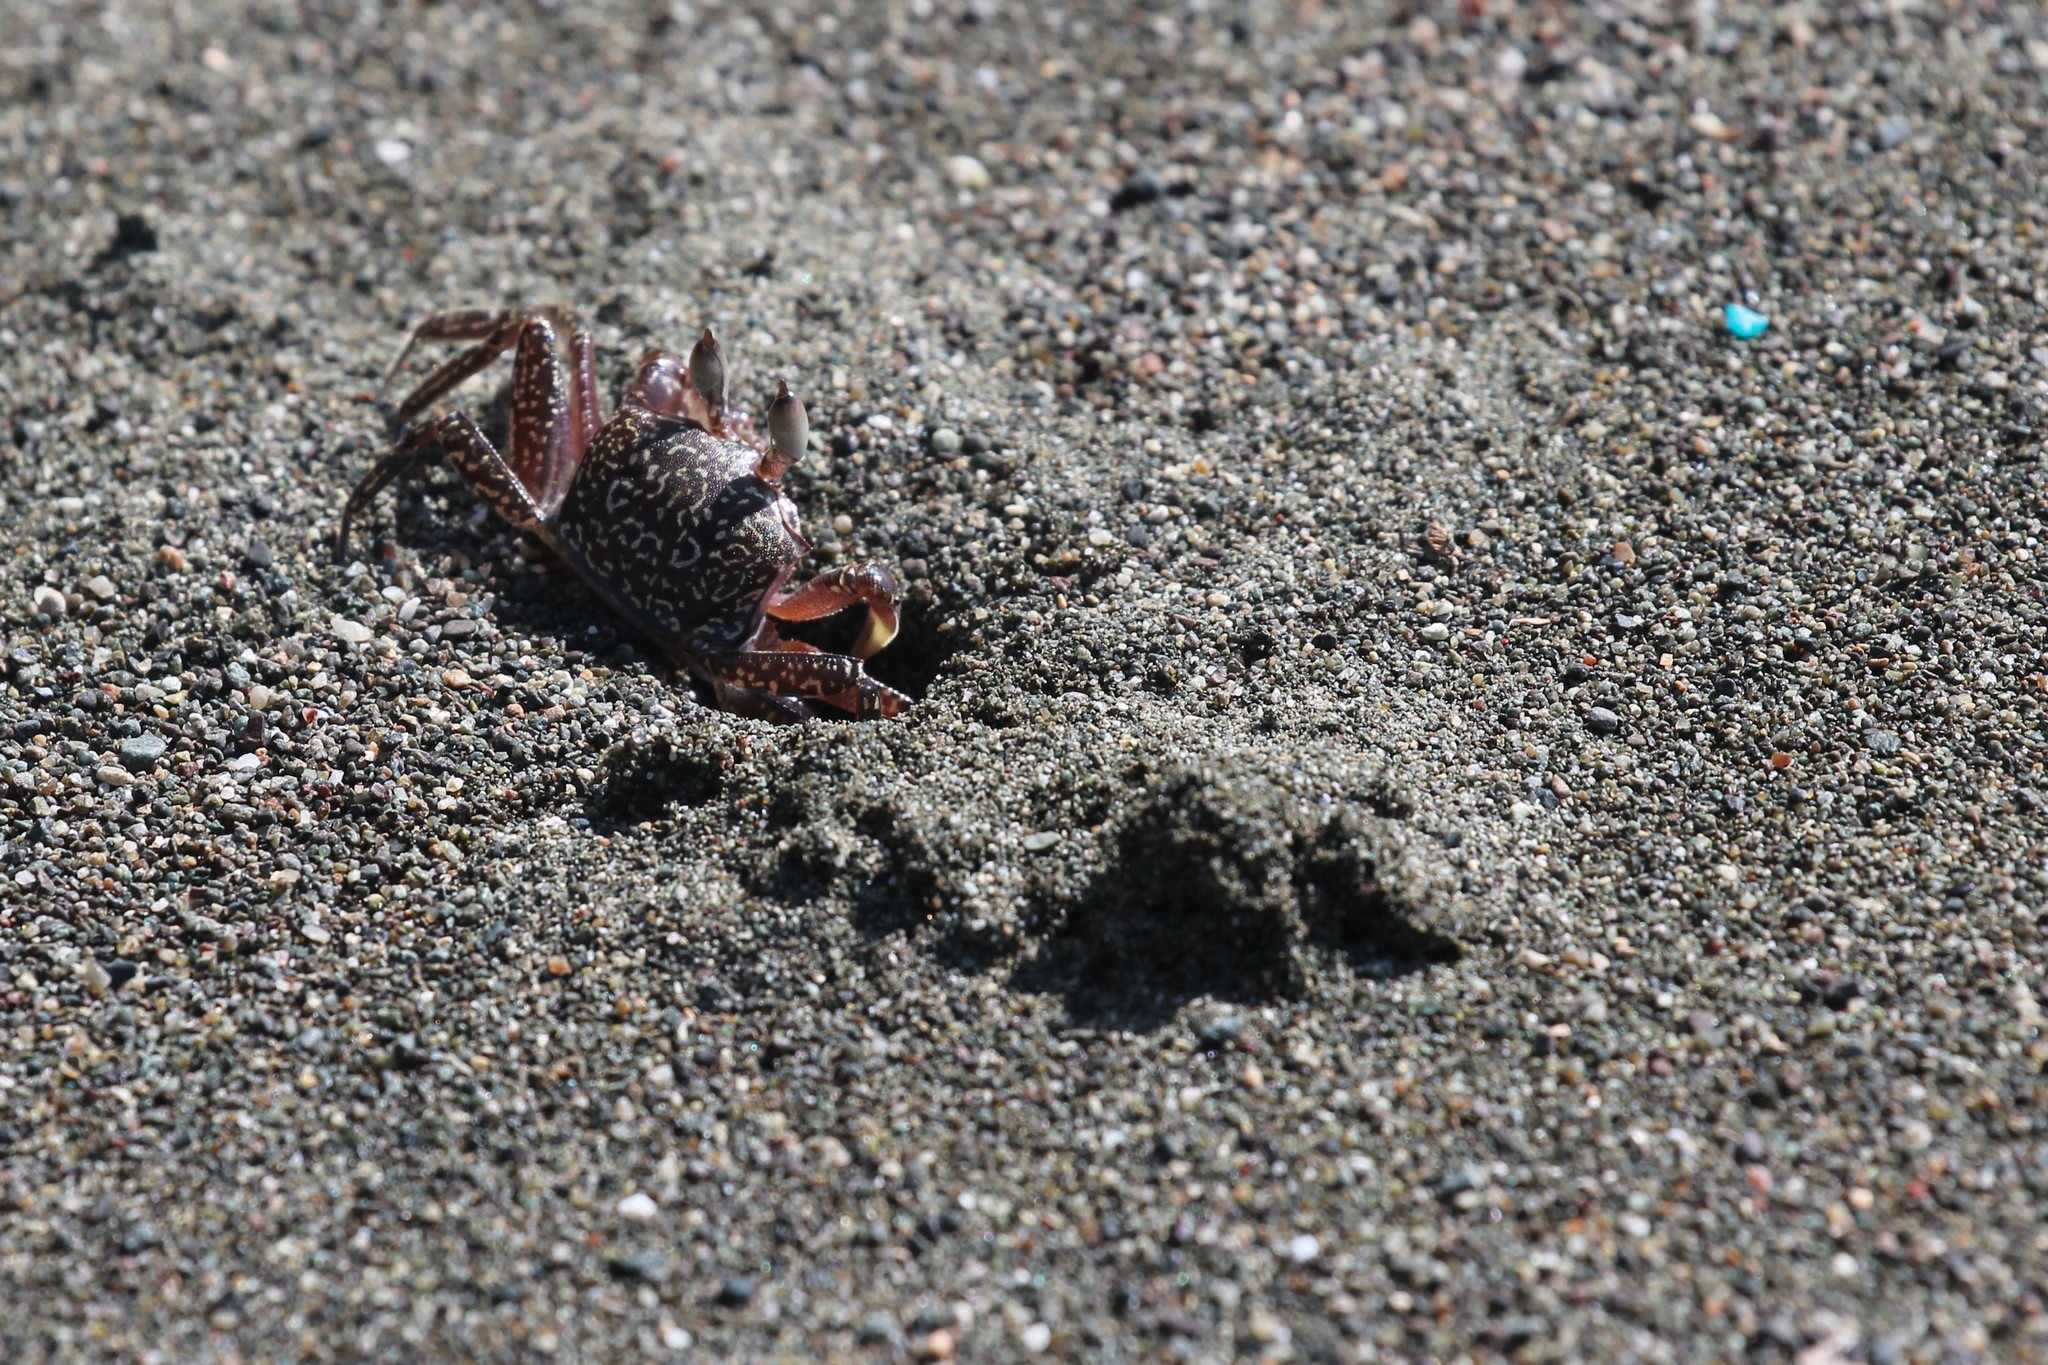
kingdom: Animalia
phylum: Arthropoda
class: Malacostraca
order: Decapoda
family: Ocypodidae
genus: Ocypode
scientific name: Ocypode gaudichaudii
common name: Pacific ghost crab
